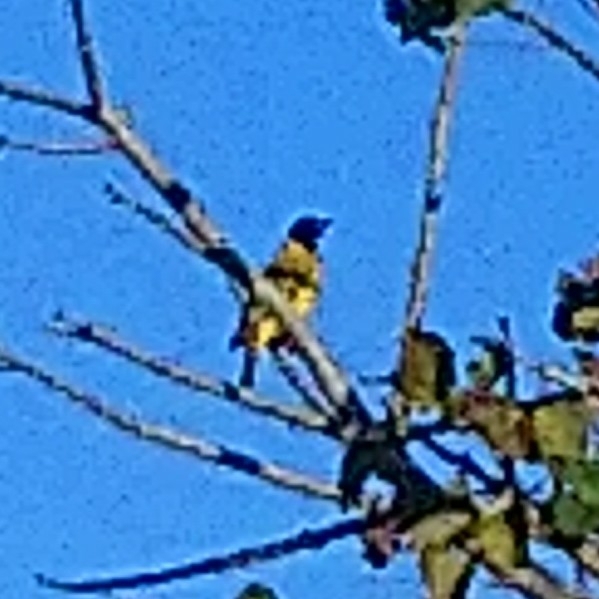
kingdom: Animalia
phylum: Chordata
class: Aves
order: Passeriformes
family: Oriolidae
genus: Oriolus
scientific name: Oriolus larvatus
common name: Black-headed oriole
